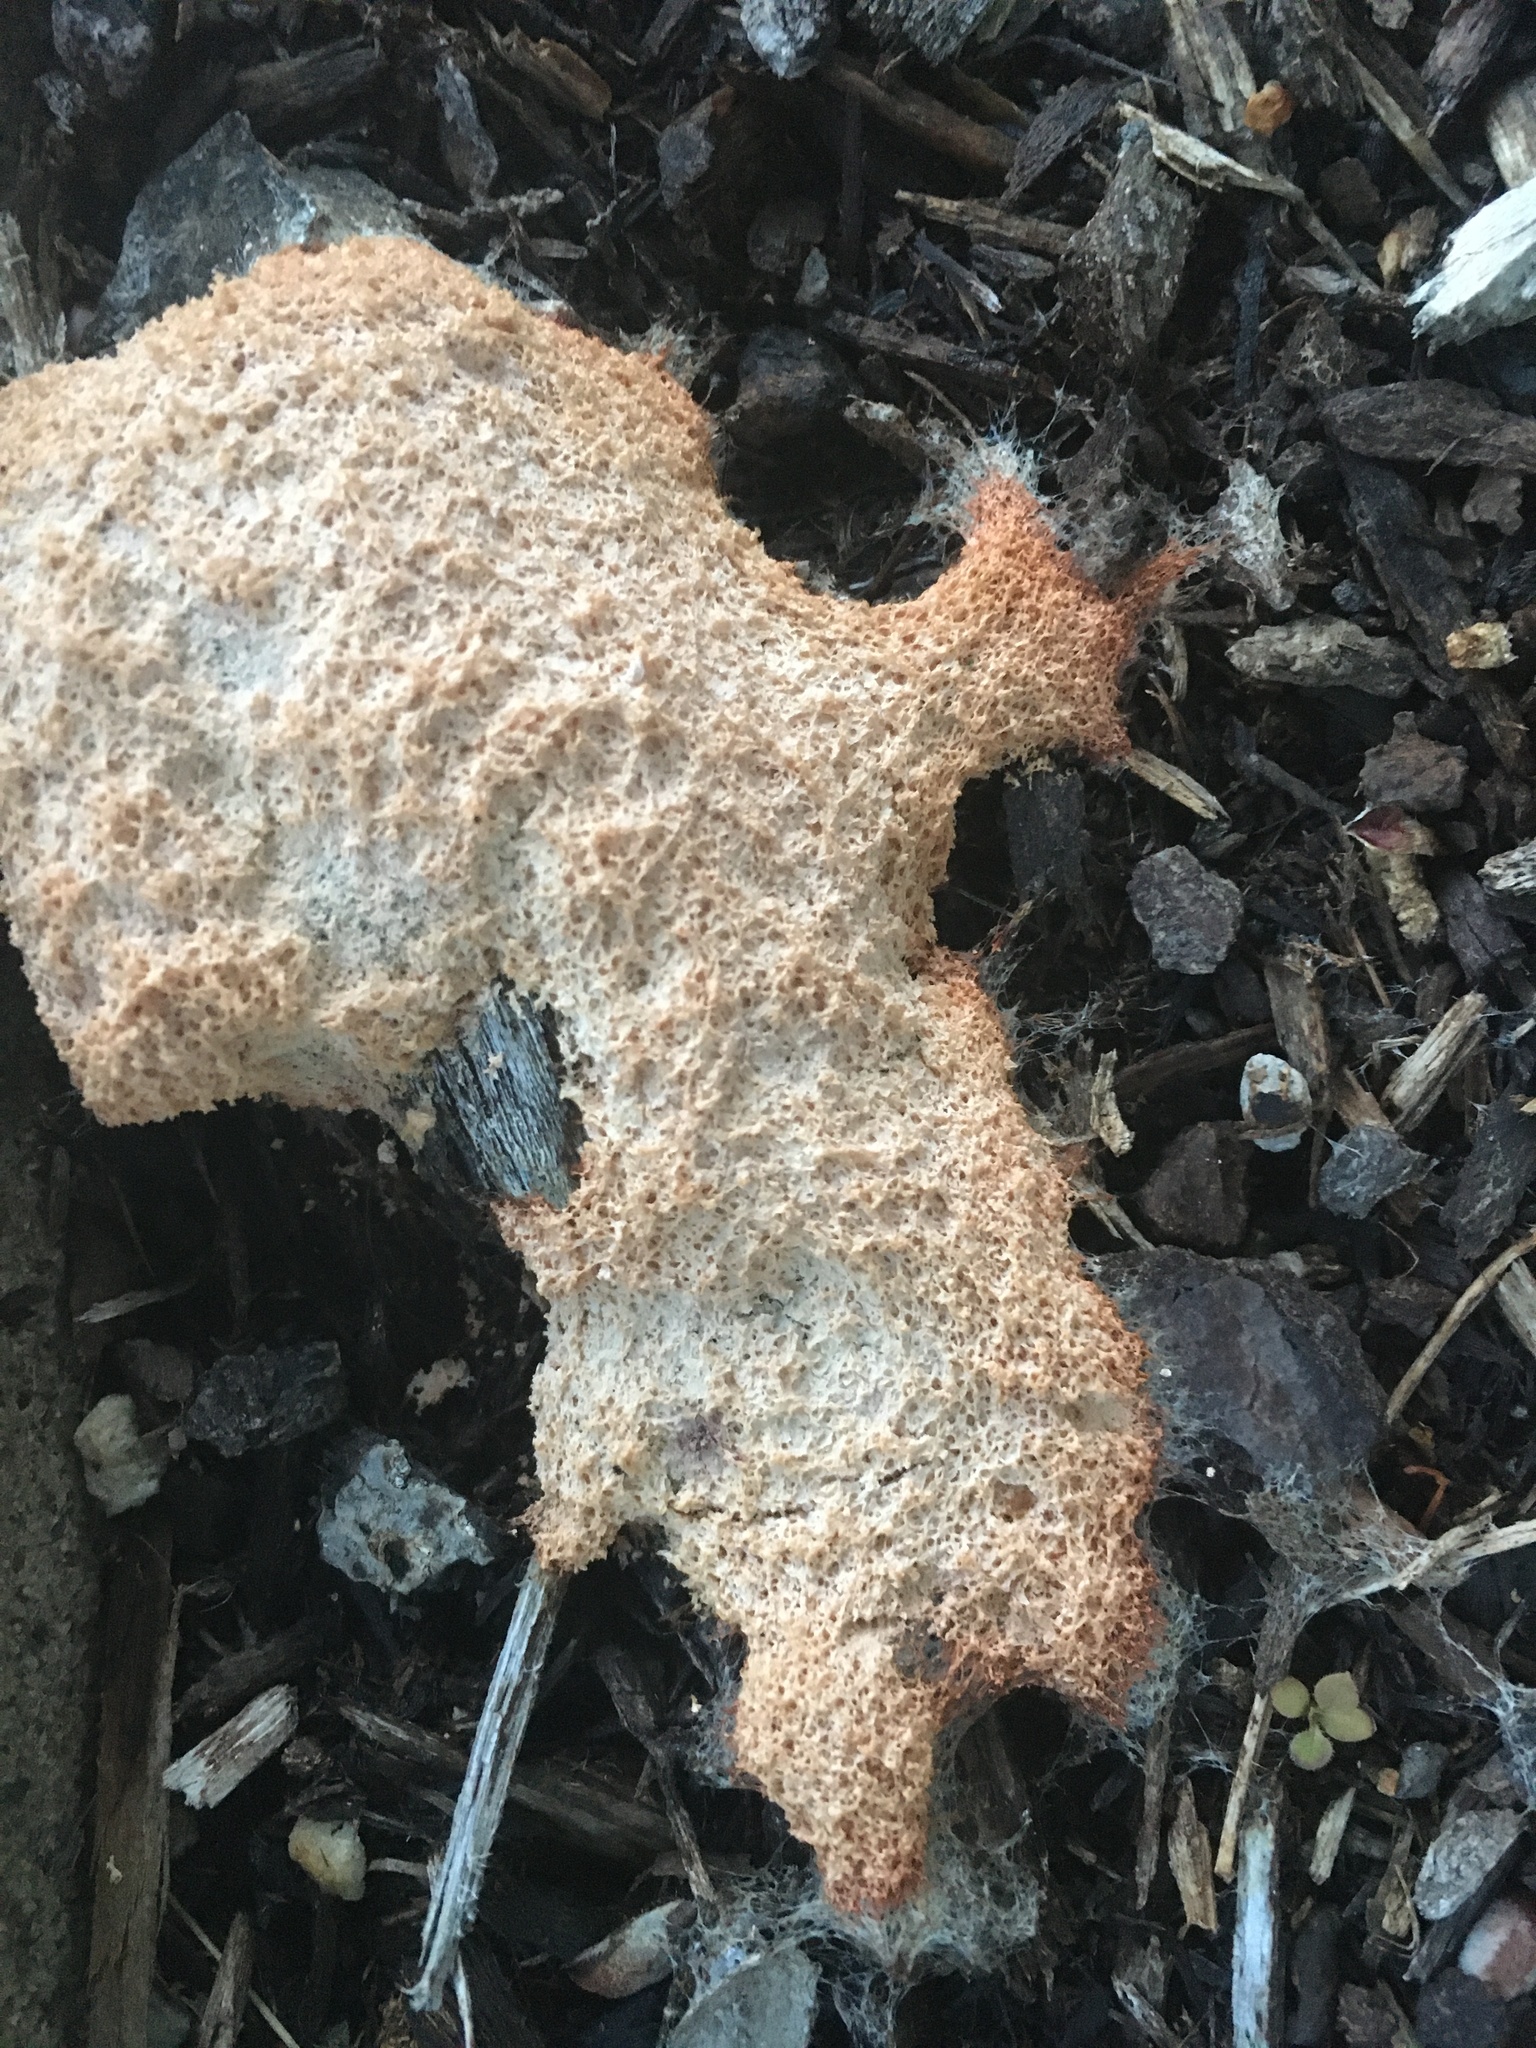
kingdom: Protozoa
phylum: Mycetozoa
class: Myxomycetes
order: Physarales
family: Physaraceae
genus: Fuligo
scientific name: Fuligo septica
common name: Dog vomit slime mold
